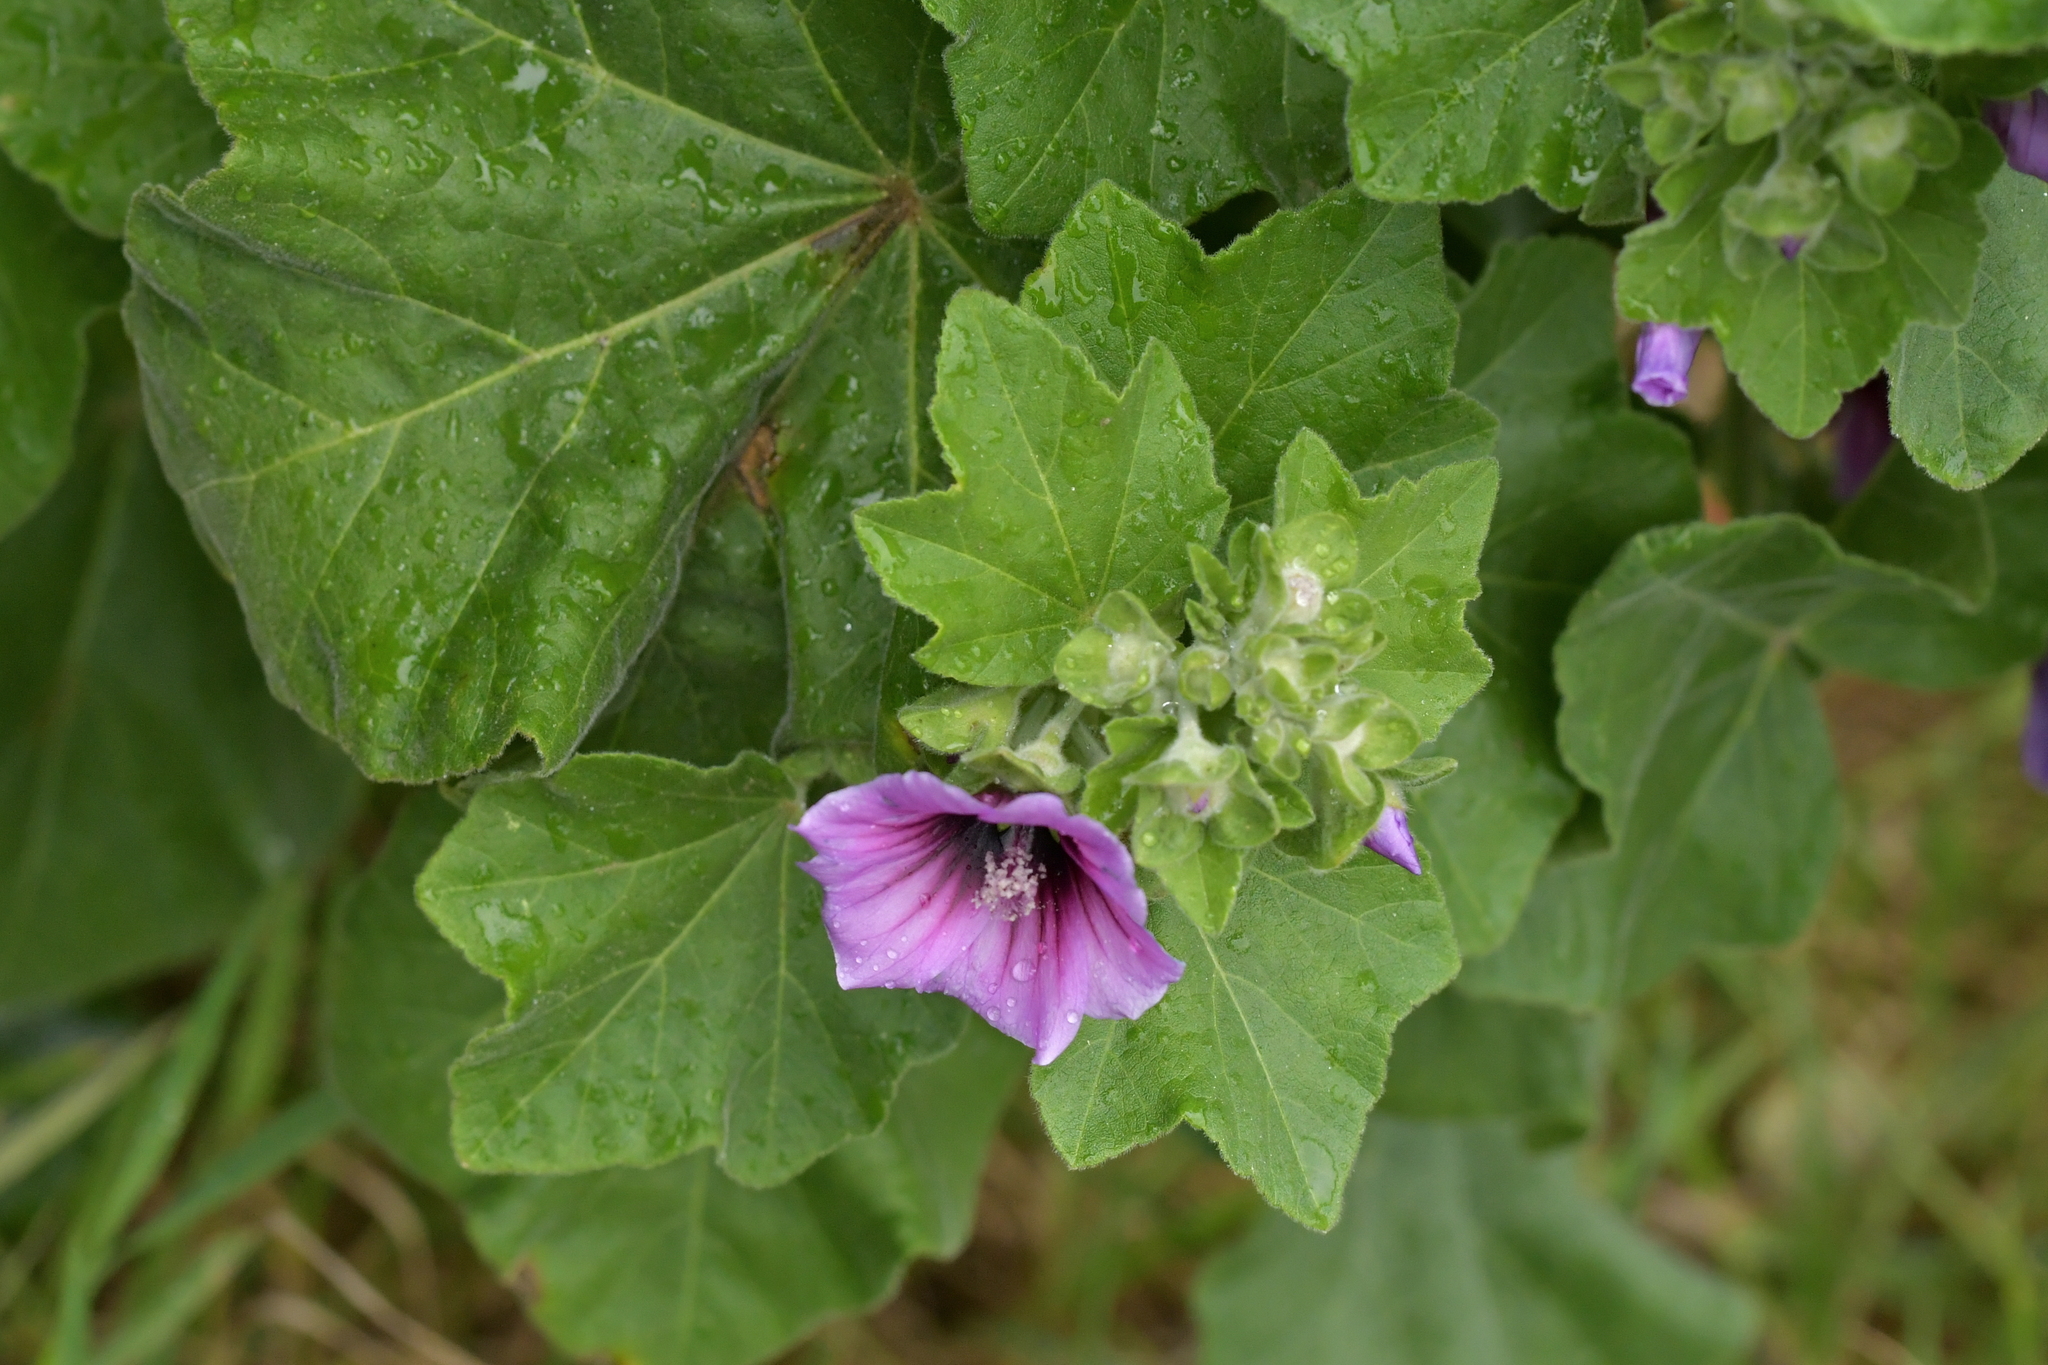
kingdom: Plantae
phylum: Tracheophyta
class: Magnoliopsida
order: Malvales
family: Malvaceae
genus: Malva
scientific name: Malva arborea
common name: Tree mallow
